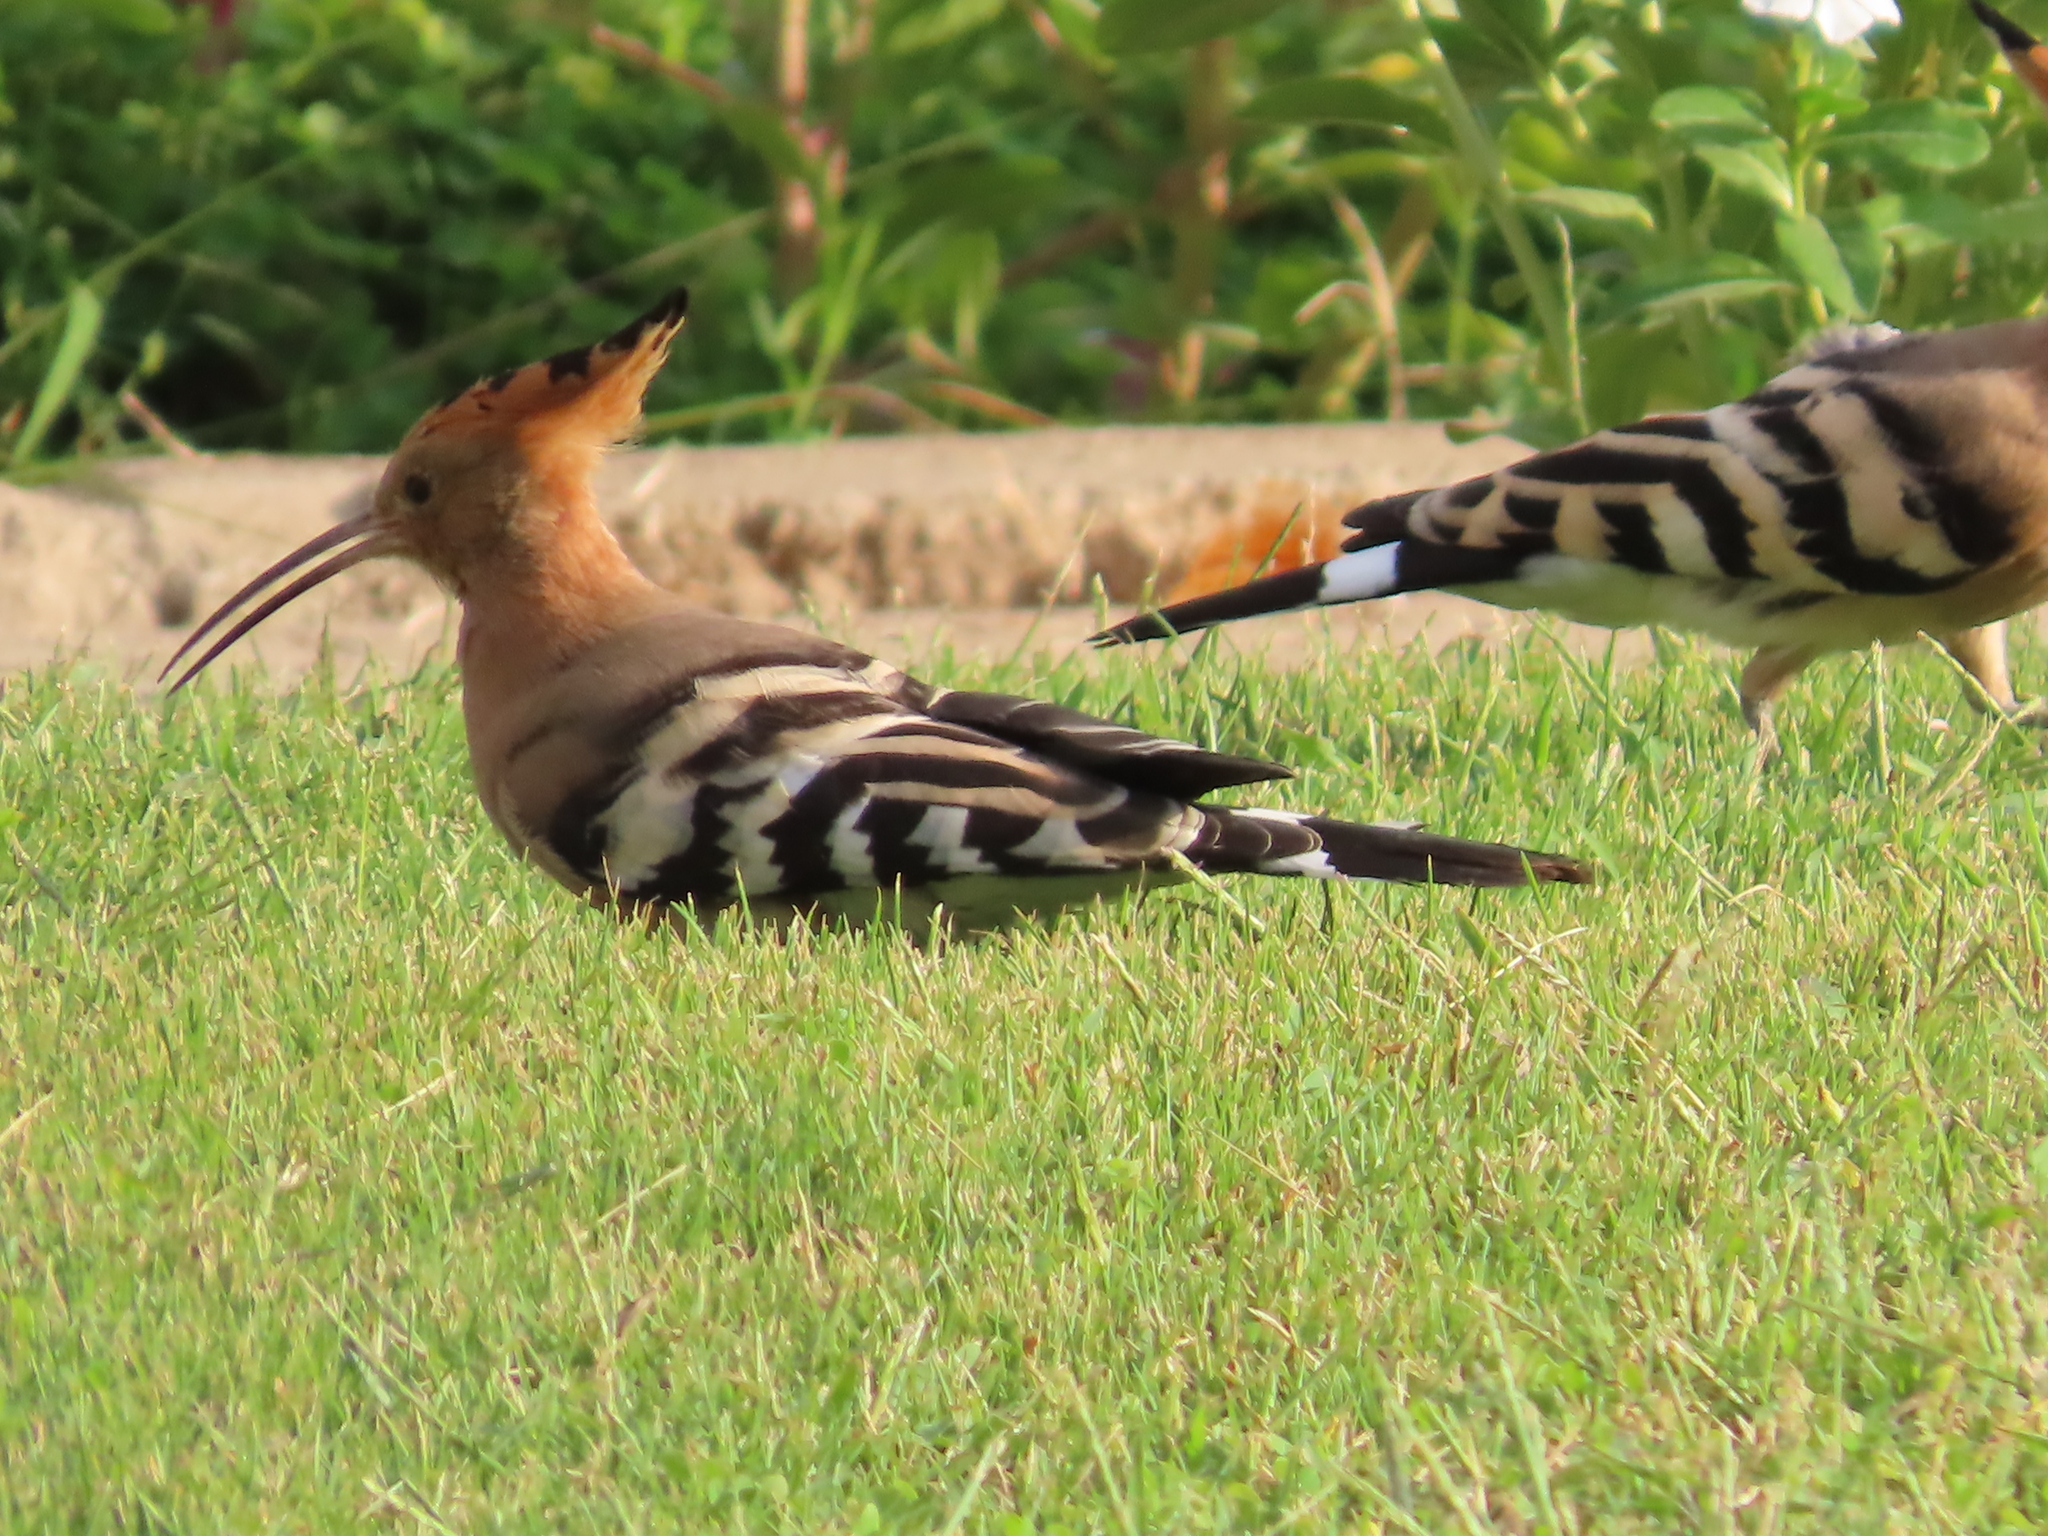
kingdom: Animalia
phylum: Chordata
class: Aves
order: Bucerotiformes
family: Upupidae
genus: Upupa
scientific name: Upupa epops
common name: Eurasian hoopoe
